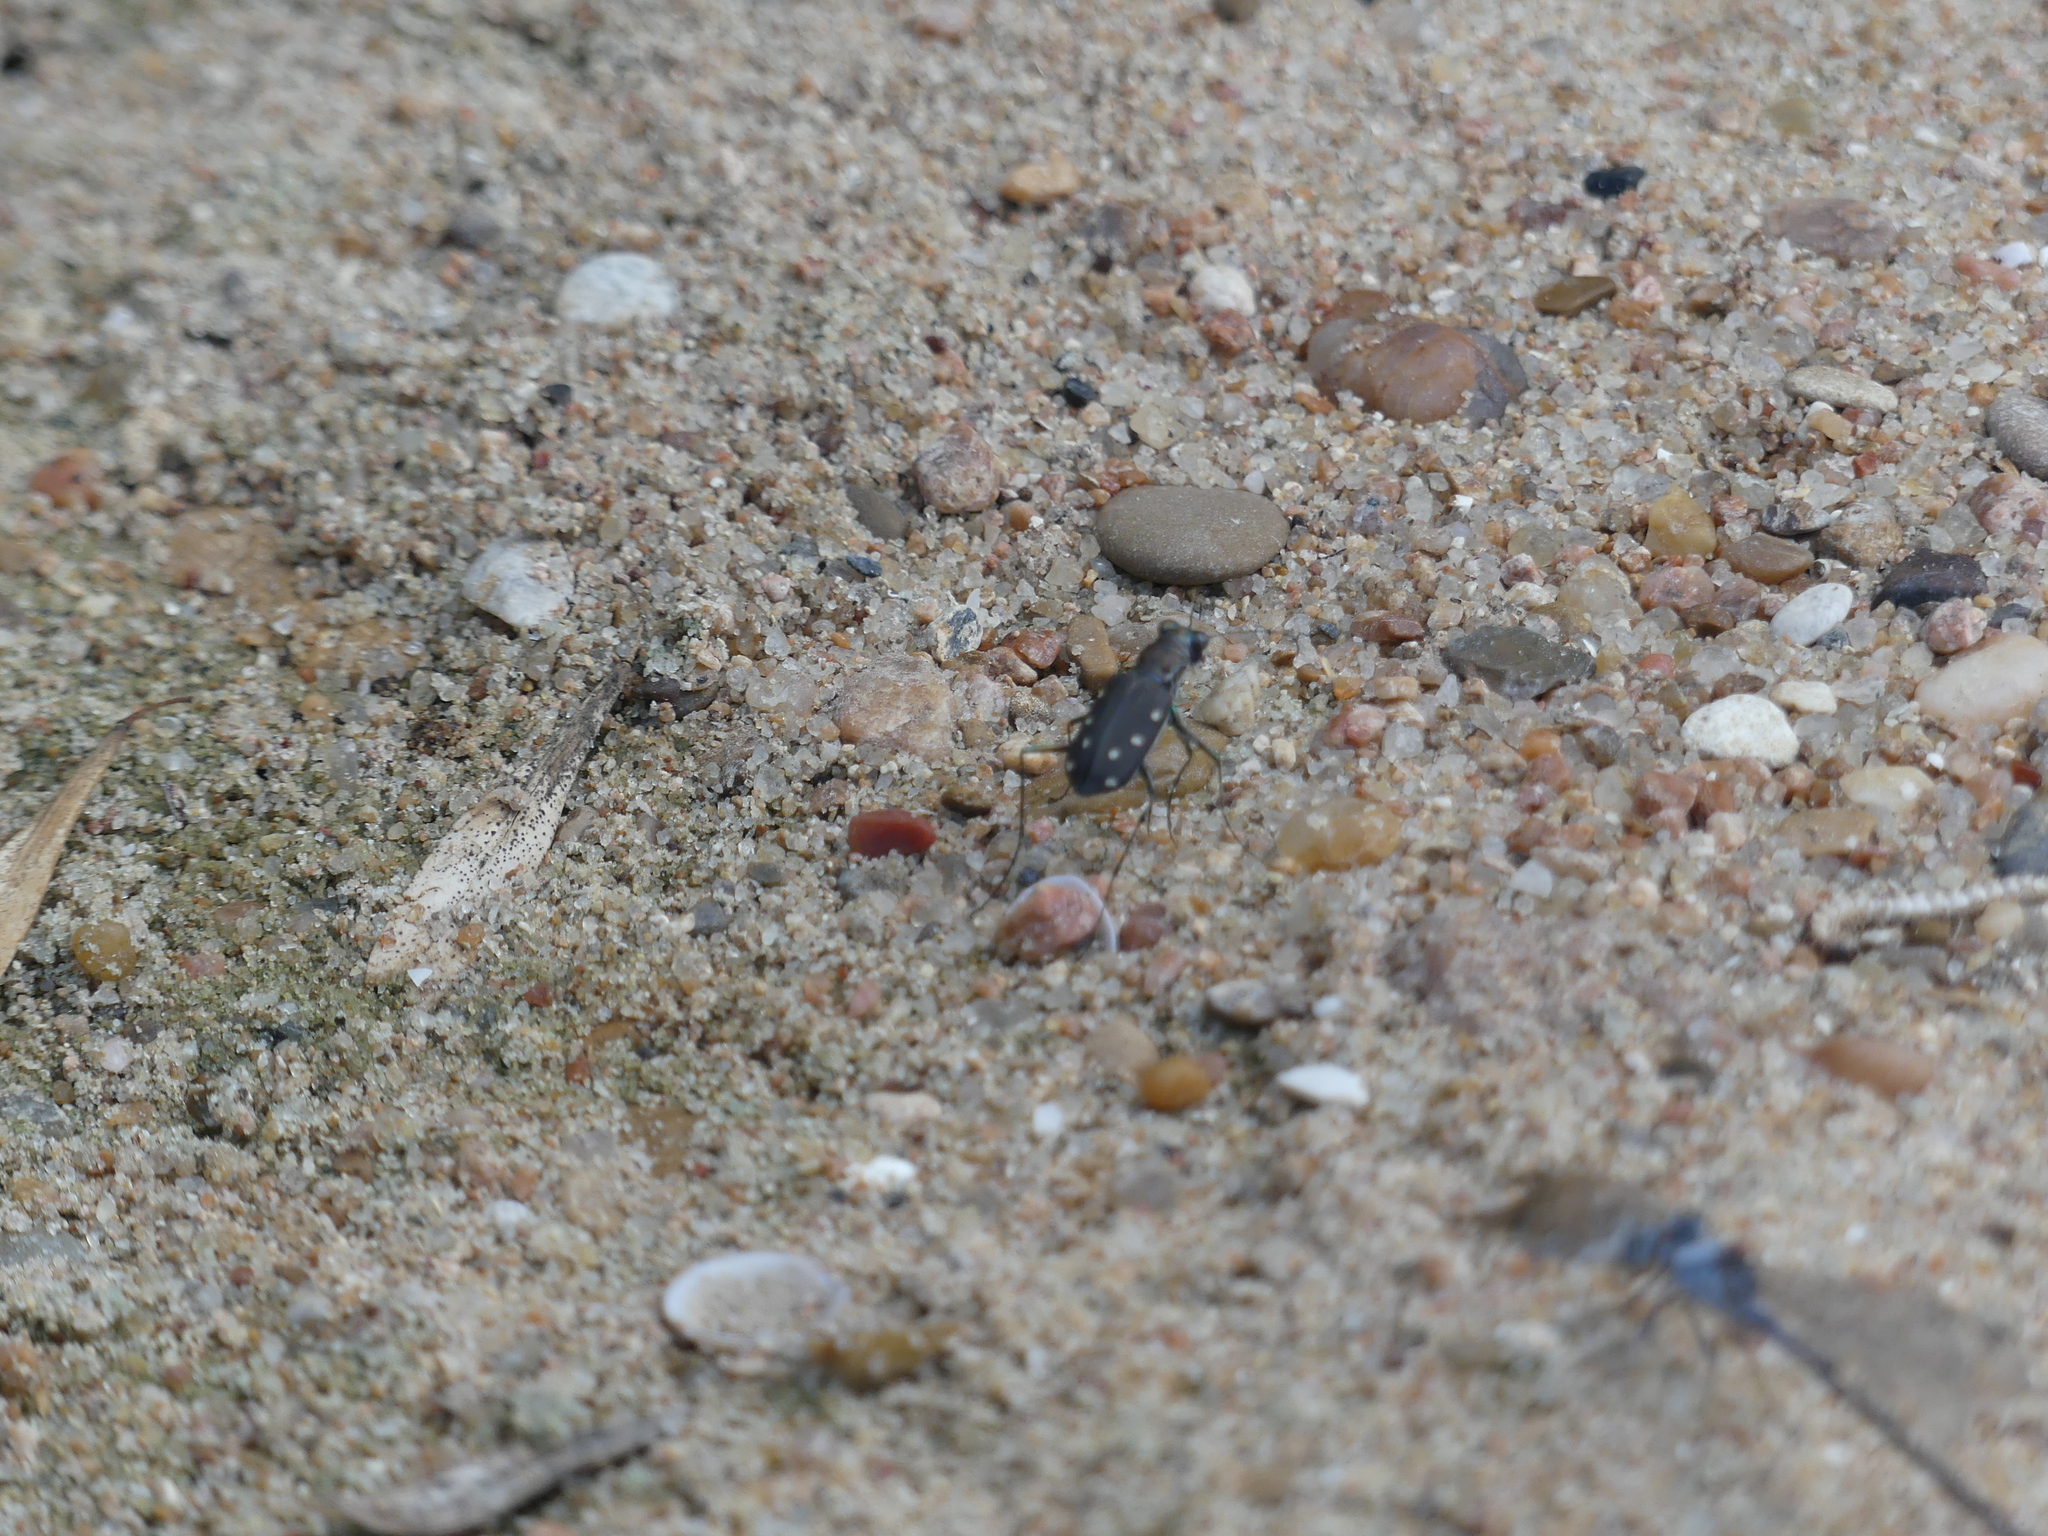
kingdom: Animalia
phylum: Arthropoda
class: Insecta
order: Coleoptera
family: Carabidae
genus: Cicindela
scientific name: Cicindela ocellata
